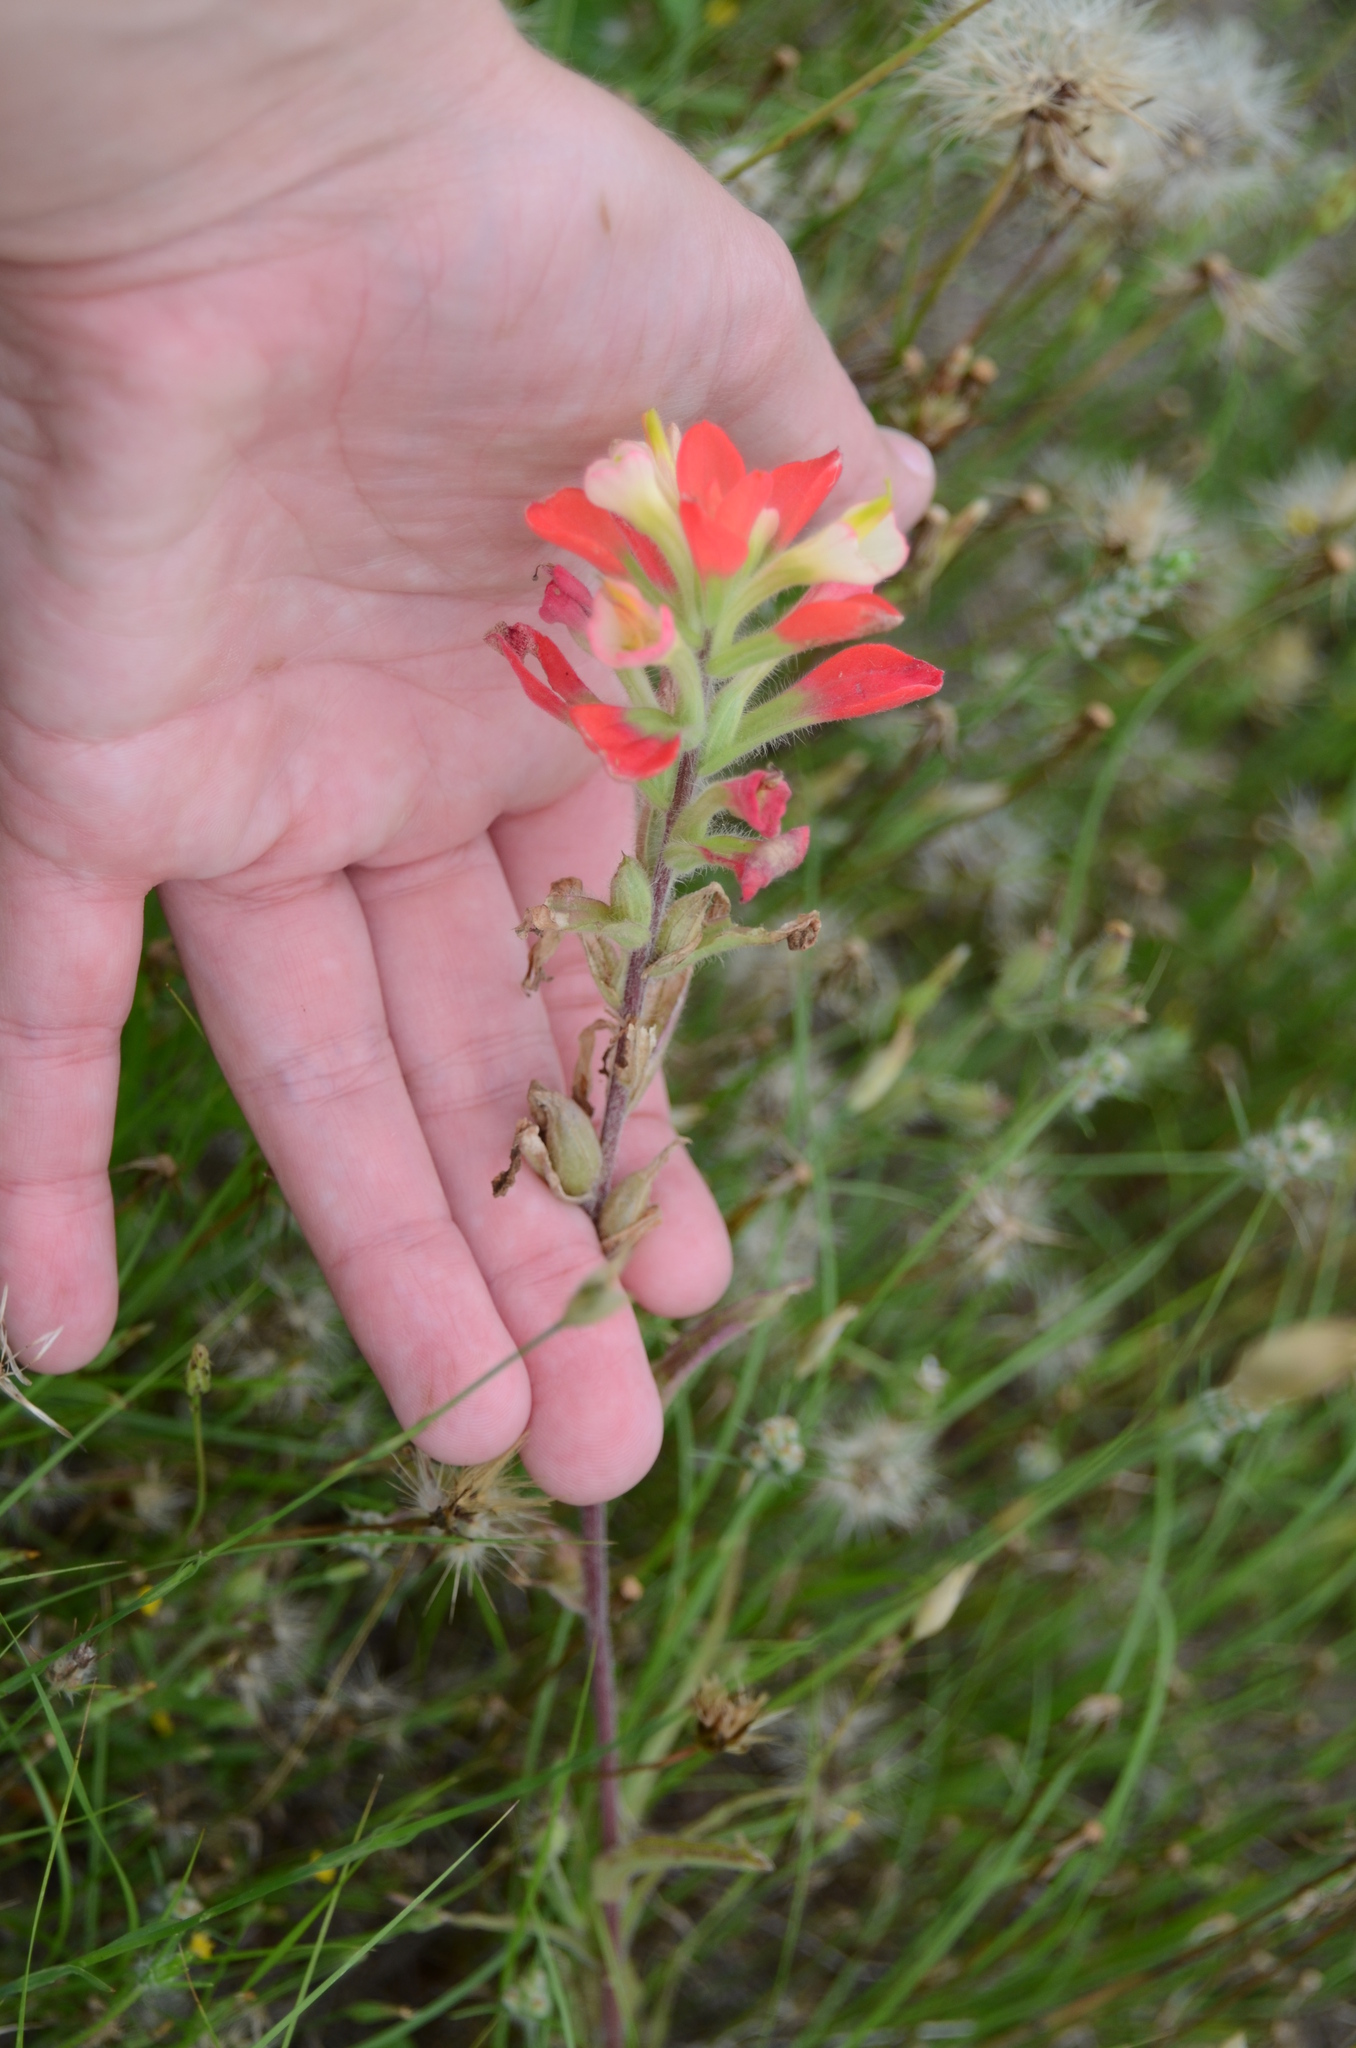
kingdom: Plantae
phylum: Tracheophyta
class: Magnoliopsida
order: Lamiales
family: Orobanchaceae
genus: Castilleja
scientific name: Castilleja indivisa
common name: Texas paintbrush
